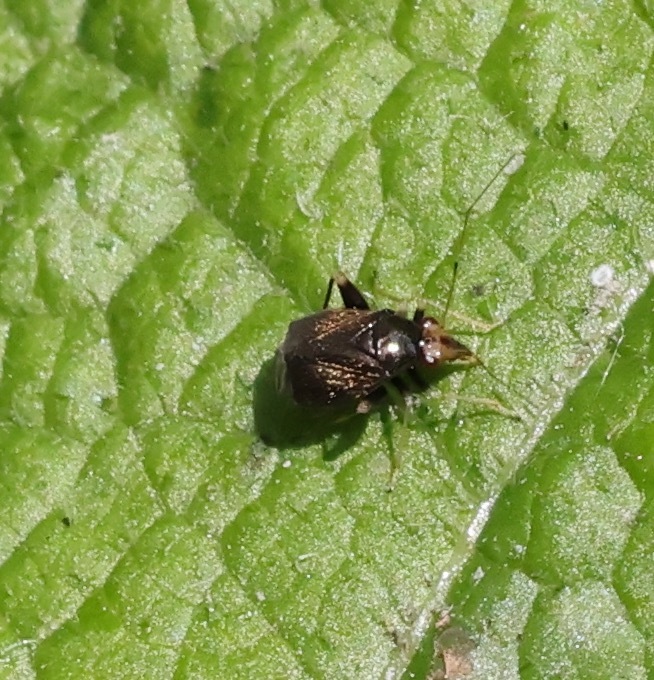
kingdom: Animalia
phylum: Arthropoda
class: Insecta
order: Hemiptera
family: Miridae
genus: Halticus
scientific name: Halticus luteicollis
